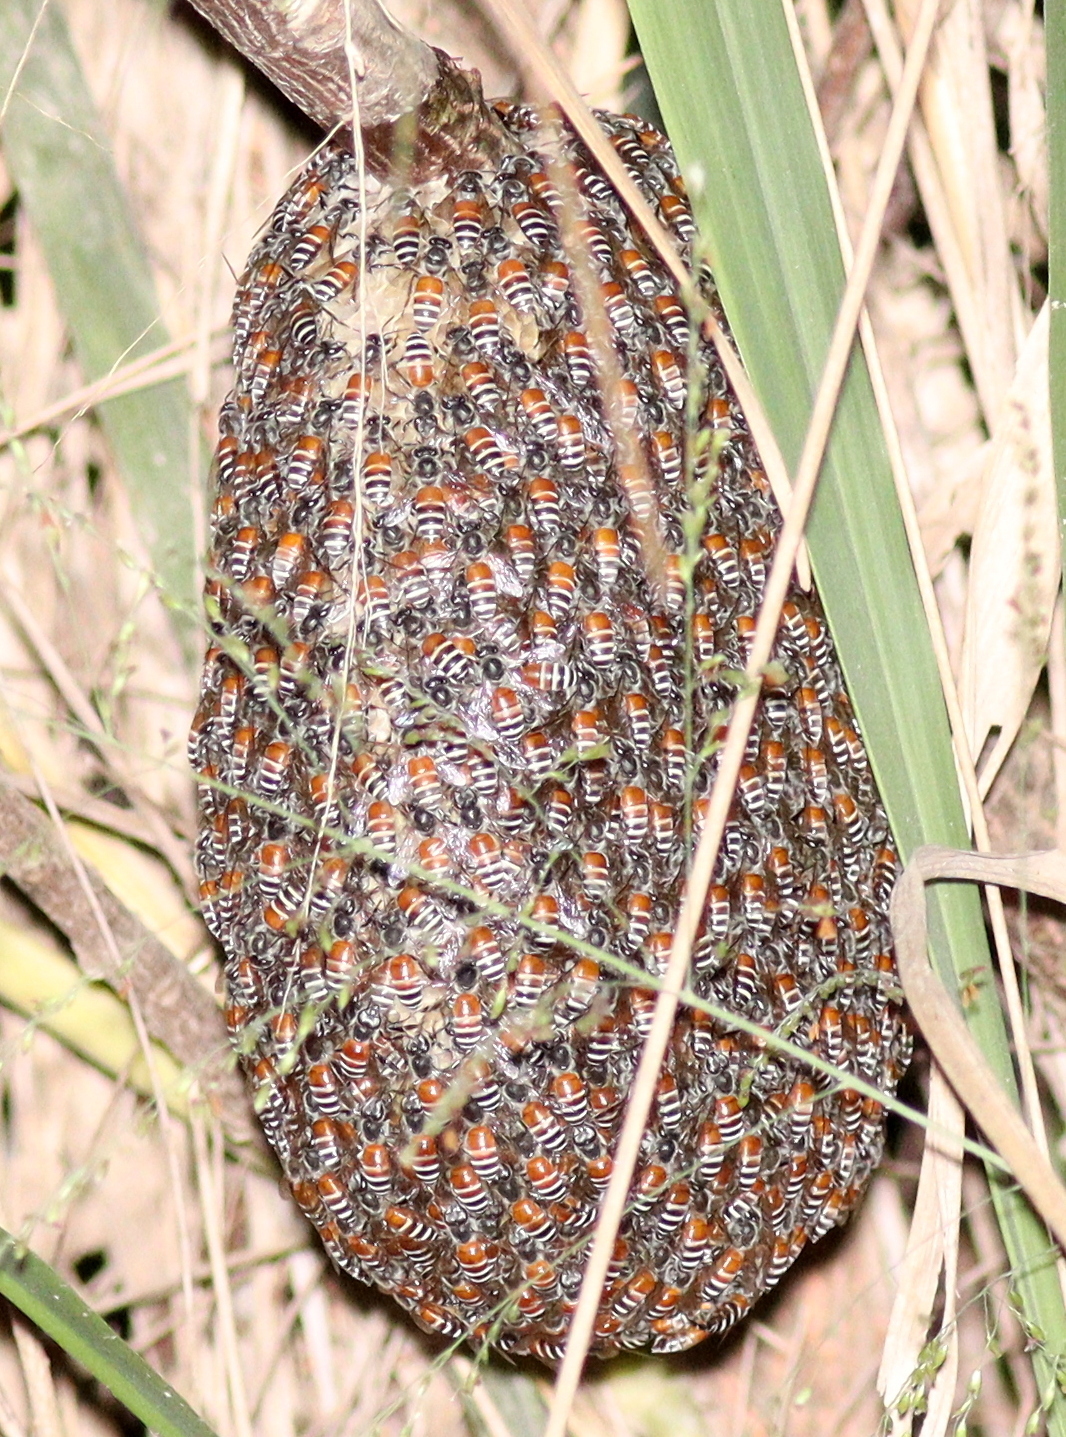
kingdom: Animalia
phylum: Arthropoda
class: Insecta
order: Hymenoptera
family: Apidae
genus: Apis
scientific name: Apis florea
